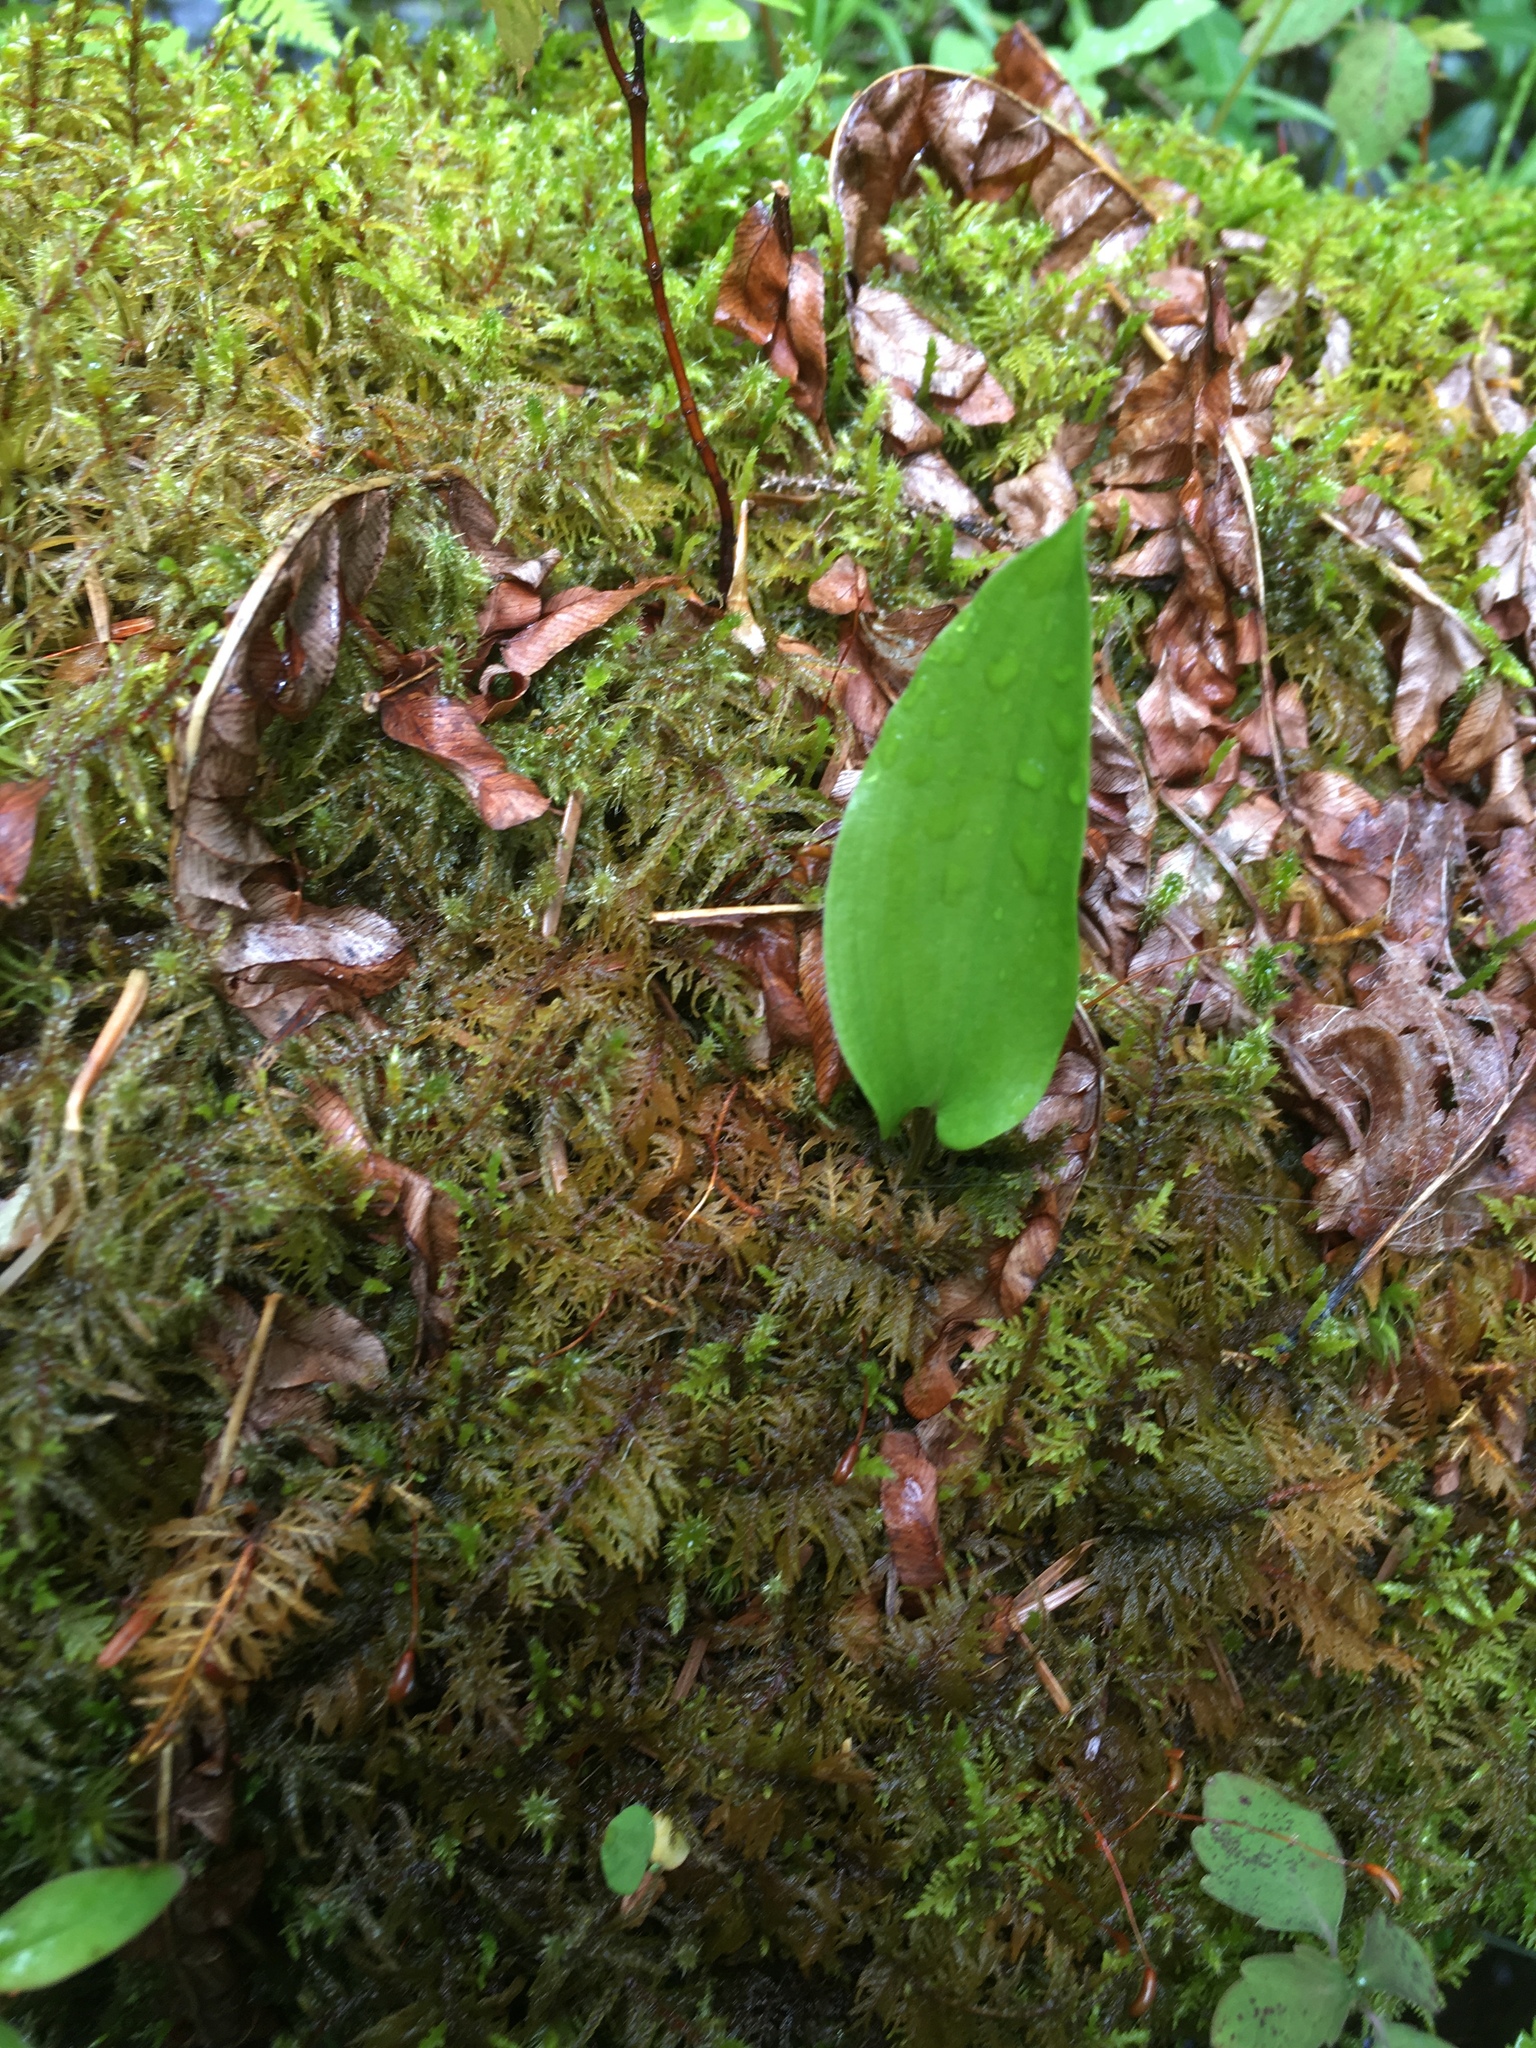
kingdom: Plantae
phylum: Tracheophyta
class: Liliopsida
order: Asparagales
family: Asparagaceae
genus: Maianthemum
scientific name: Maianthemum canadense
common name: False lily-of-the-valley
